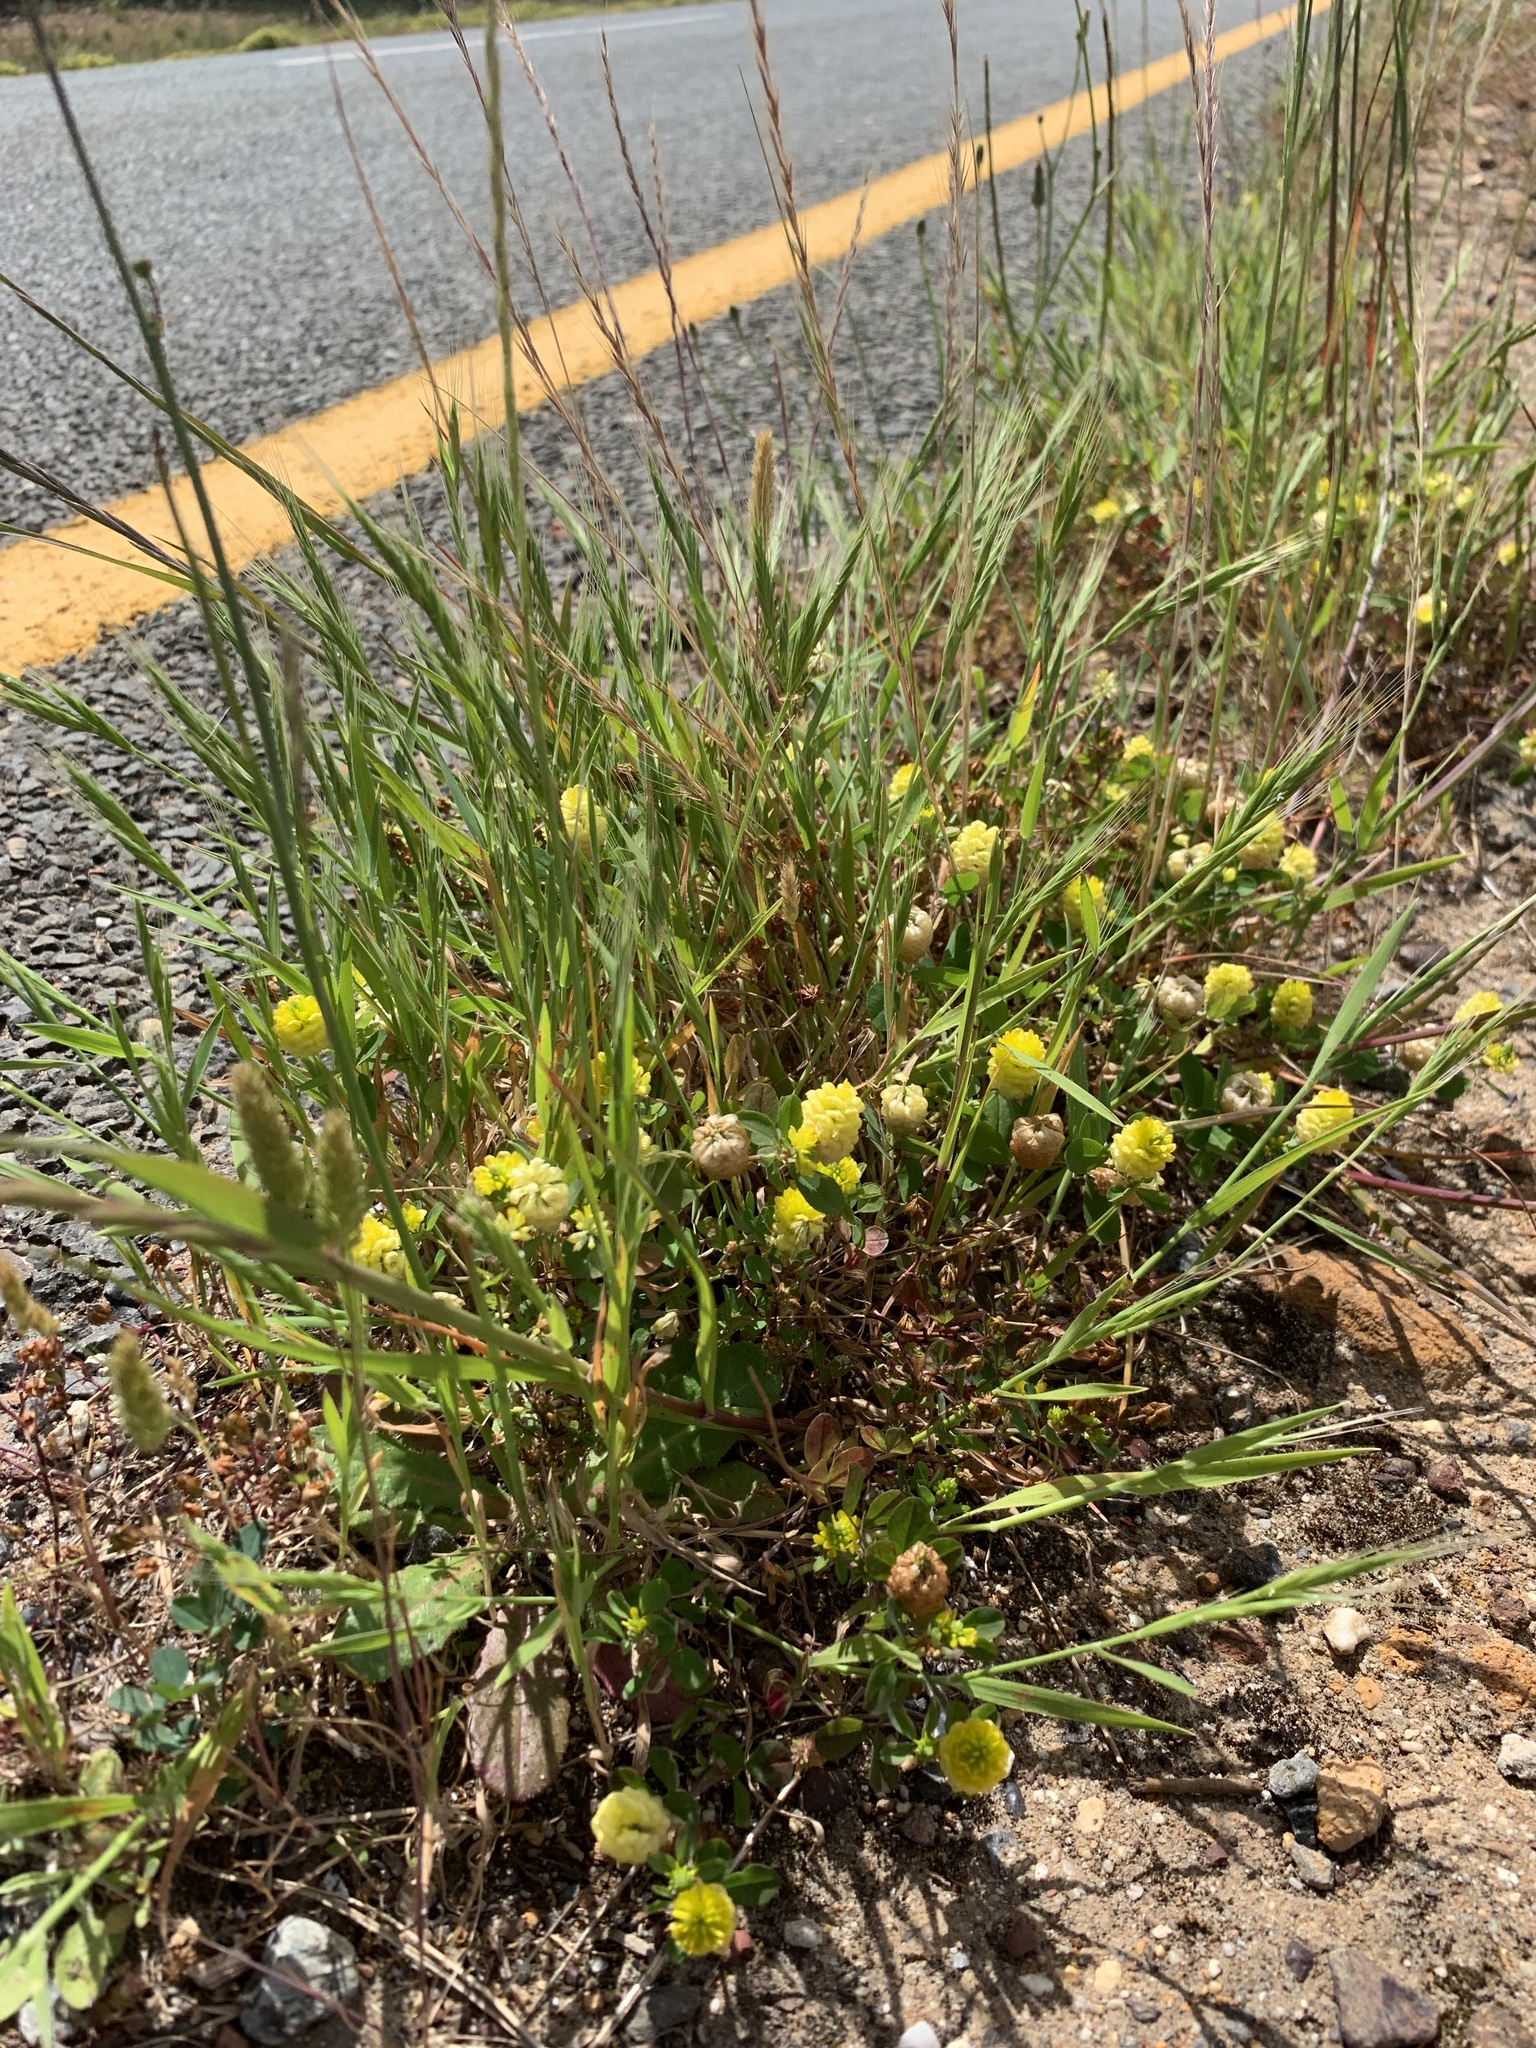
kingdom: Plantae
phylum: Tracheophyta
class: Magnoliopsida
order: Fabales
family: Fabaceae
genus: Trifolium
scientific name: Trifolium campestre
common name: Field clover
